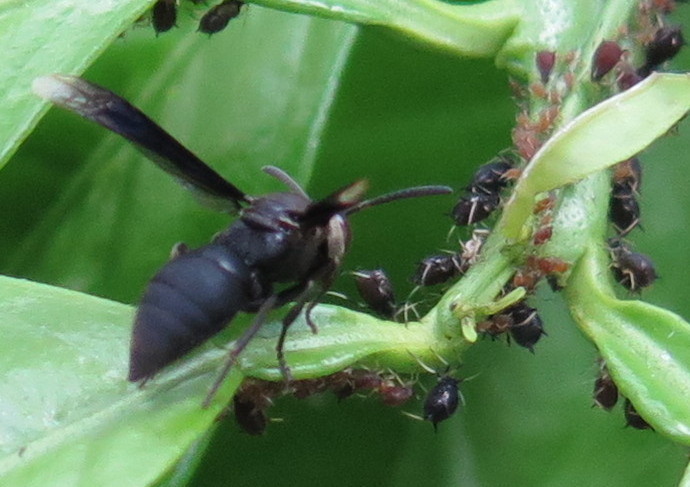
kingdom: Animalia
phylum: Arthropoda
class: Insecta
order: Hymenoptera
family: Vespidae
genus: Parachartergus
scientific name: Parachartergus fraternus
